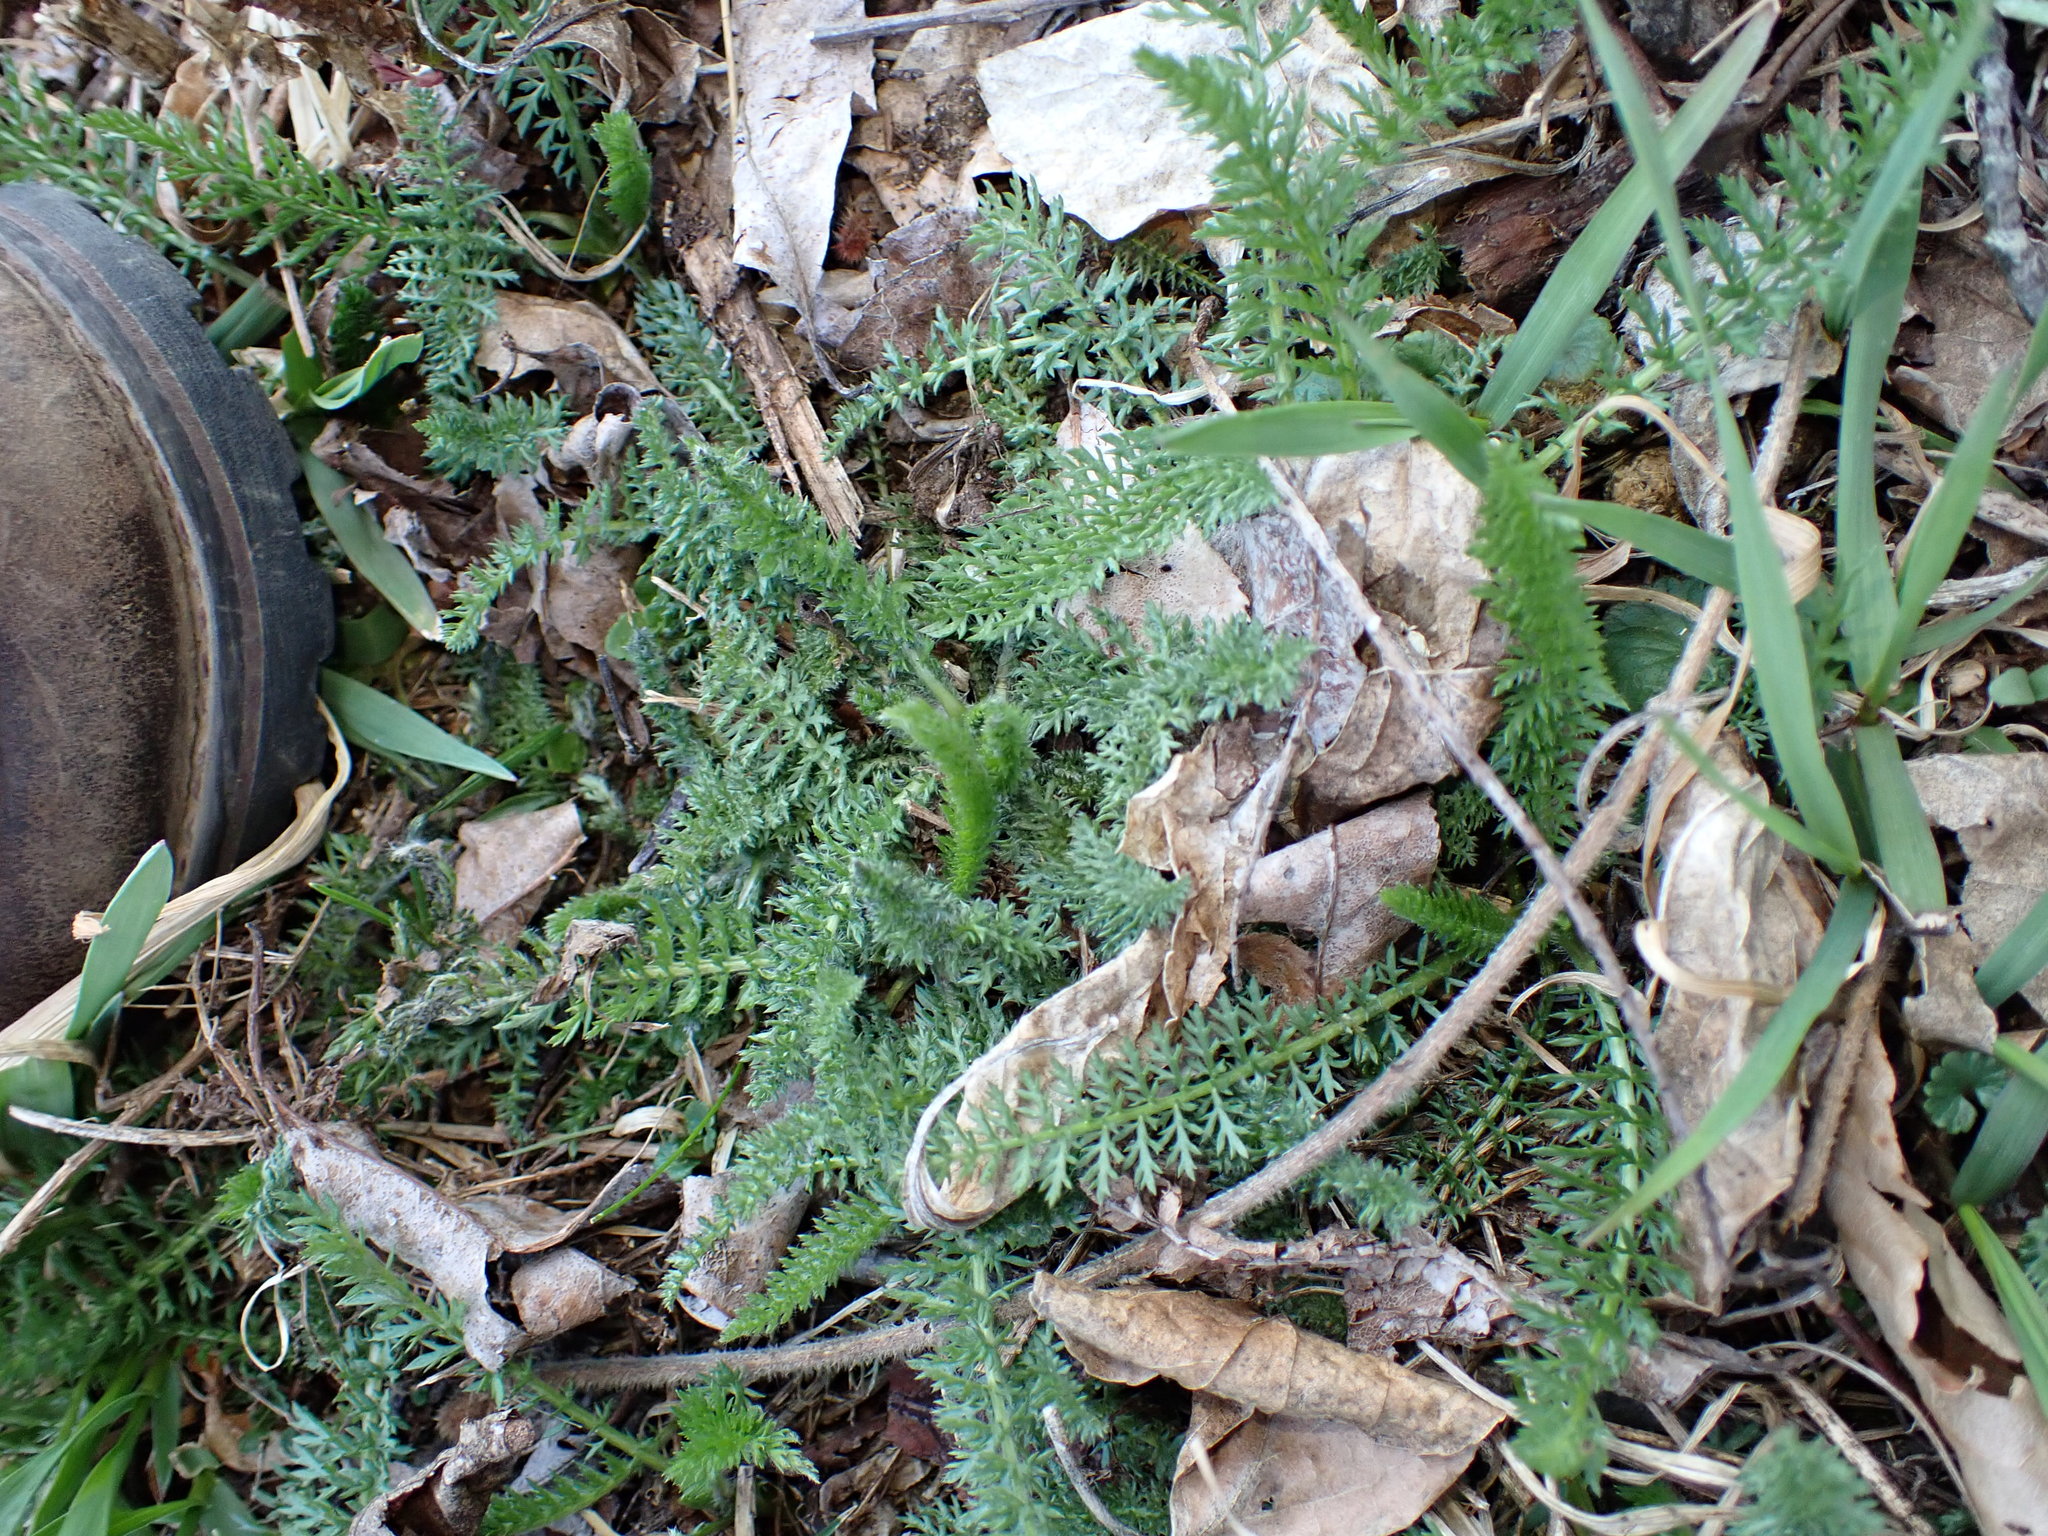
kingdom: Plantae
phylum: Tracheophyta
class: Magnoliopsida
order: Asterales
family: Asteraceae
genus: Achillea
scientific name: Achillea millefolium
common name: Yarrow
